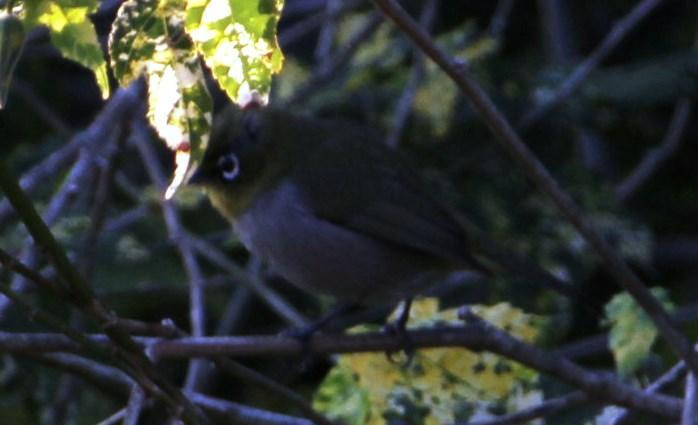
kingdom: Animalia
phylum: Chordata
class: Aves
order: Passeriformes
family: Zosteropidae
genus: Zosterops
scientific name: Zosterops virens
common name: Cape white-eye
